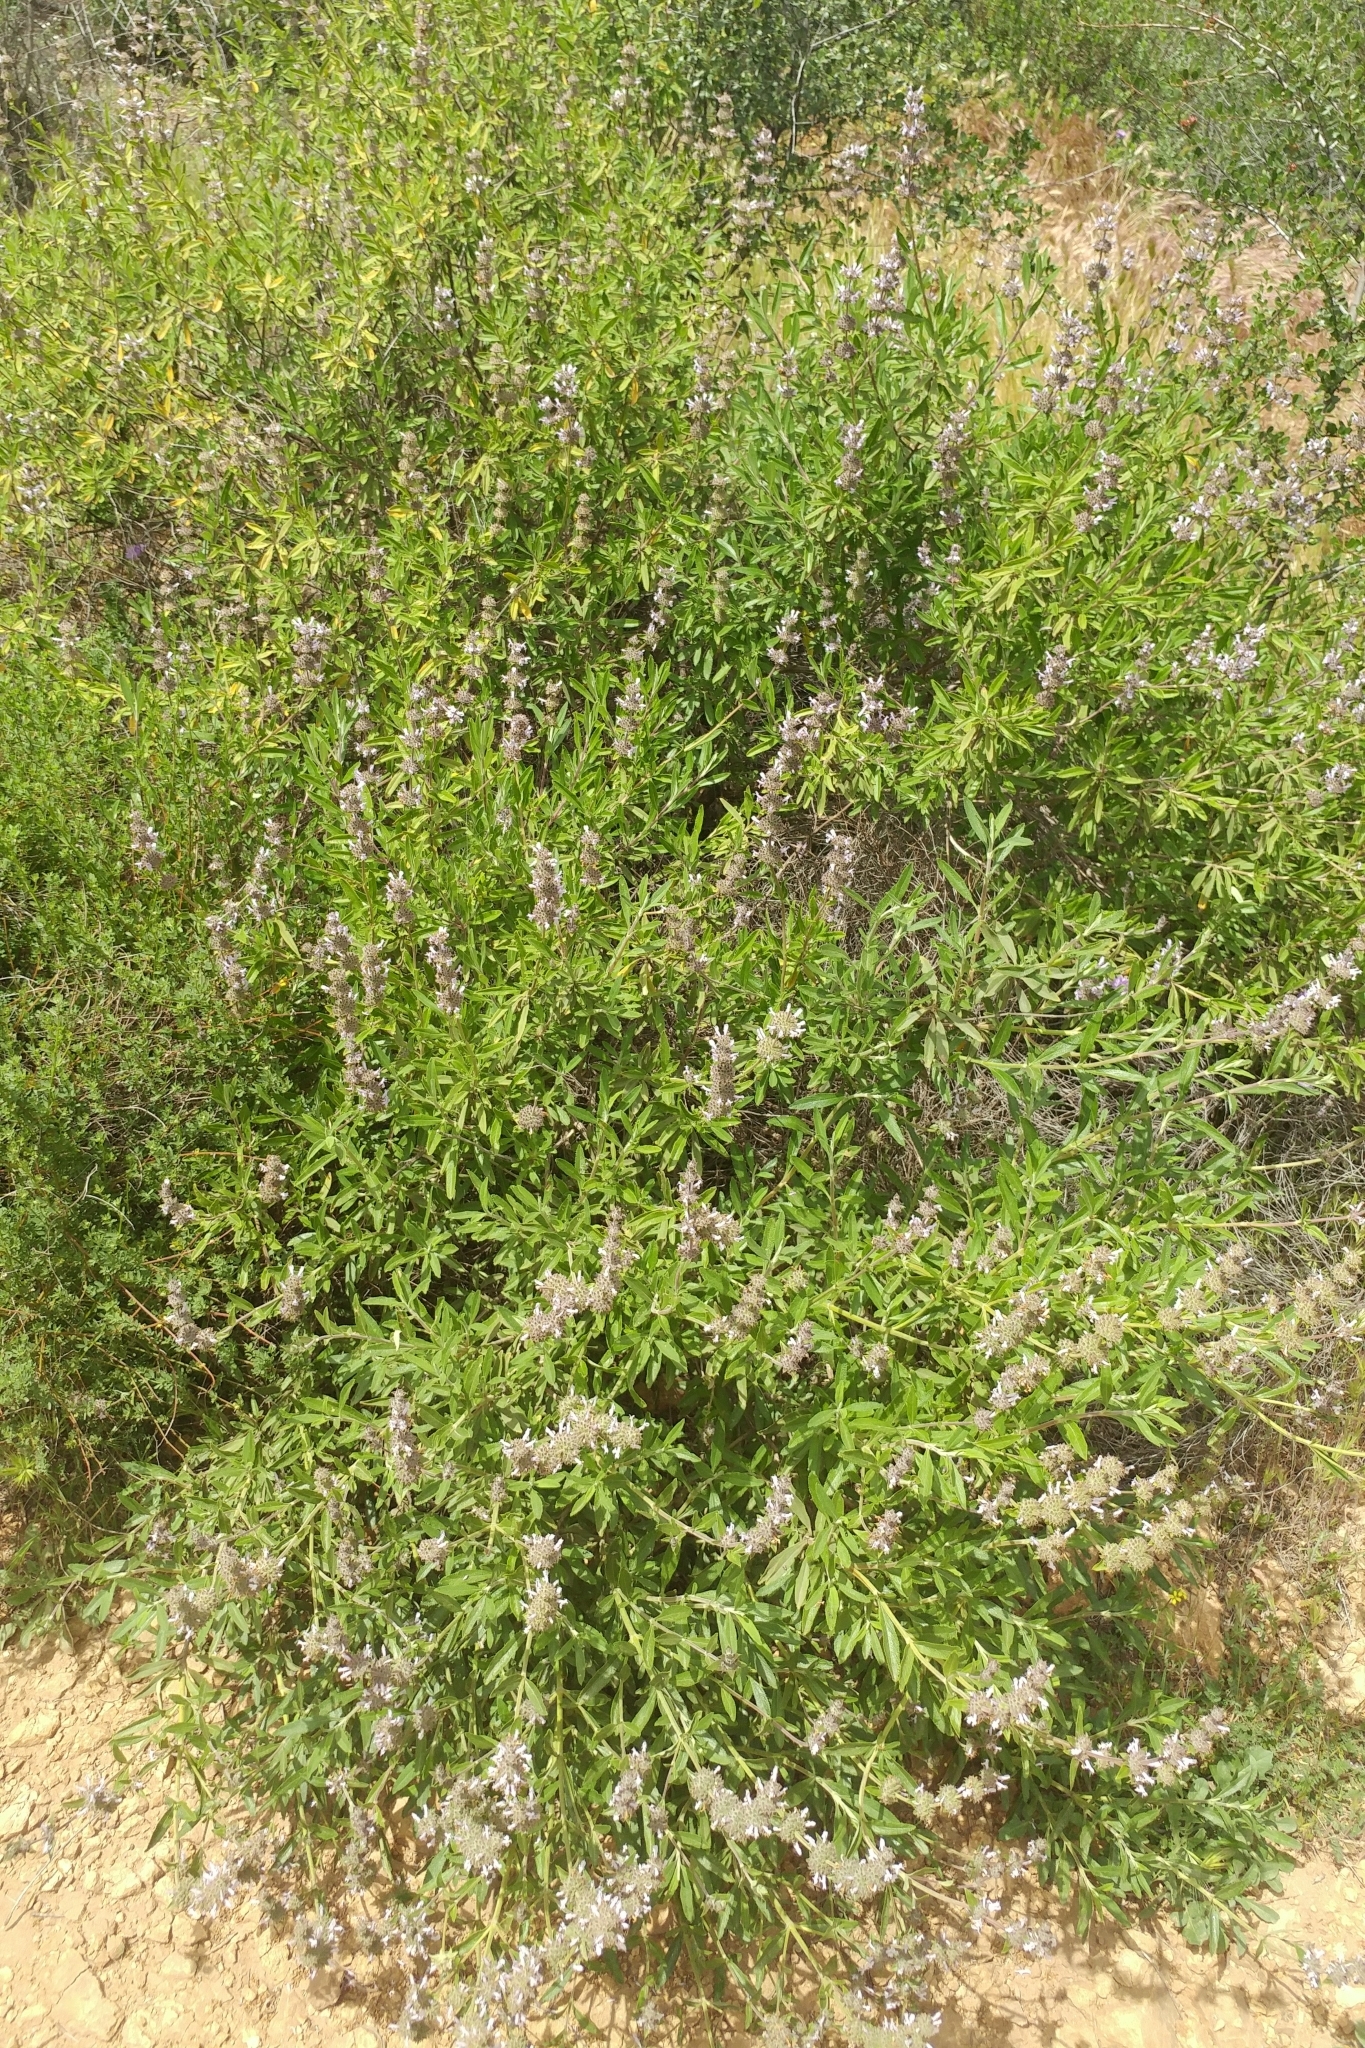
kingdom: Plantae
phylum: Tracheophyta
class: Magnoliopsida
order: Lamiales
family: Lamiaceae
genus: Salvia
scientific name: Salvia mellifera
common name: Black sage
